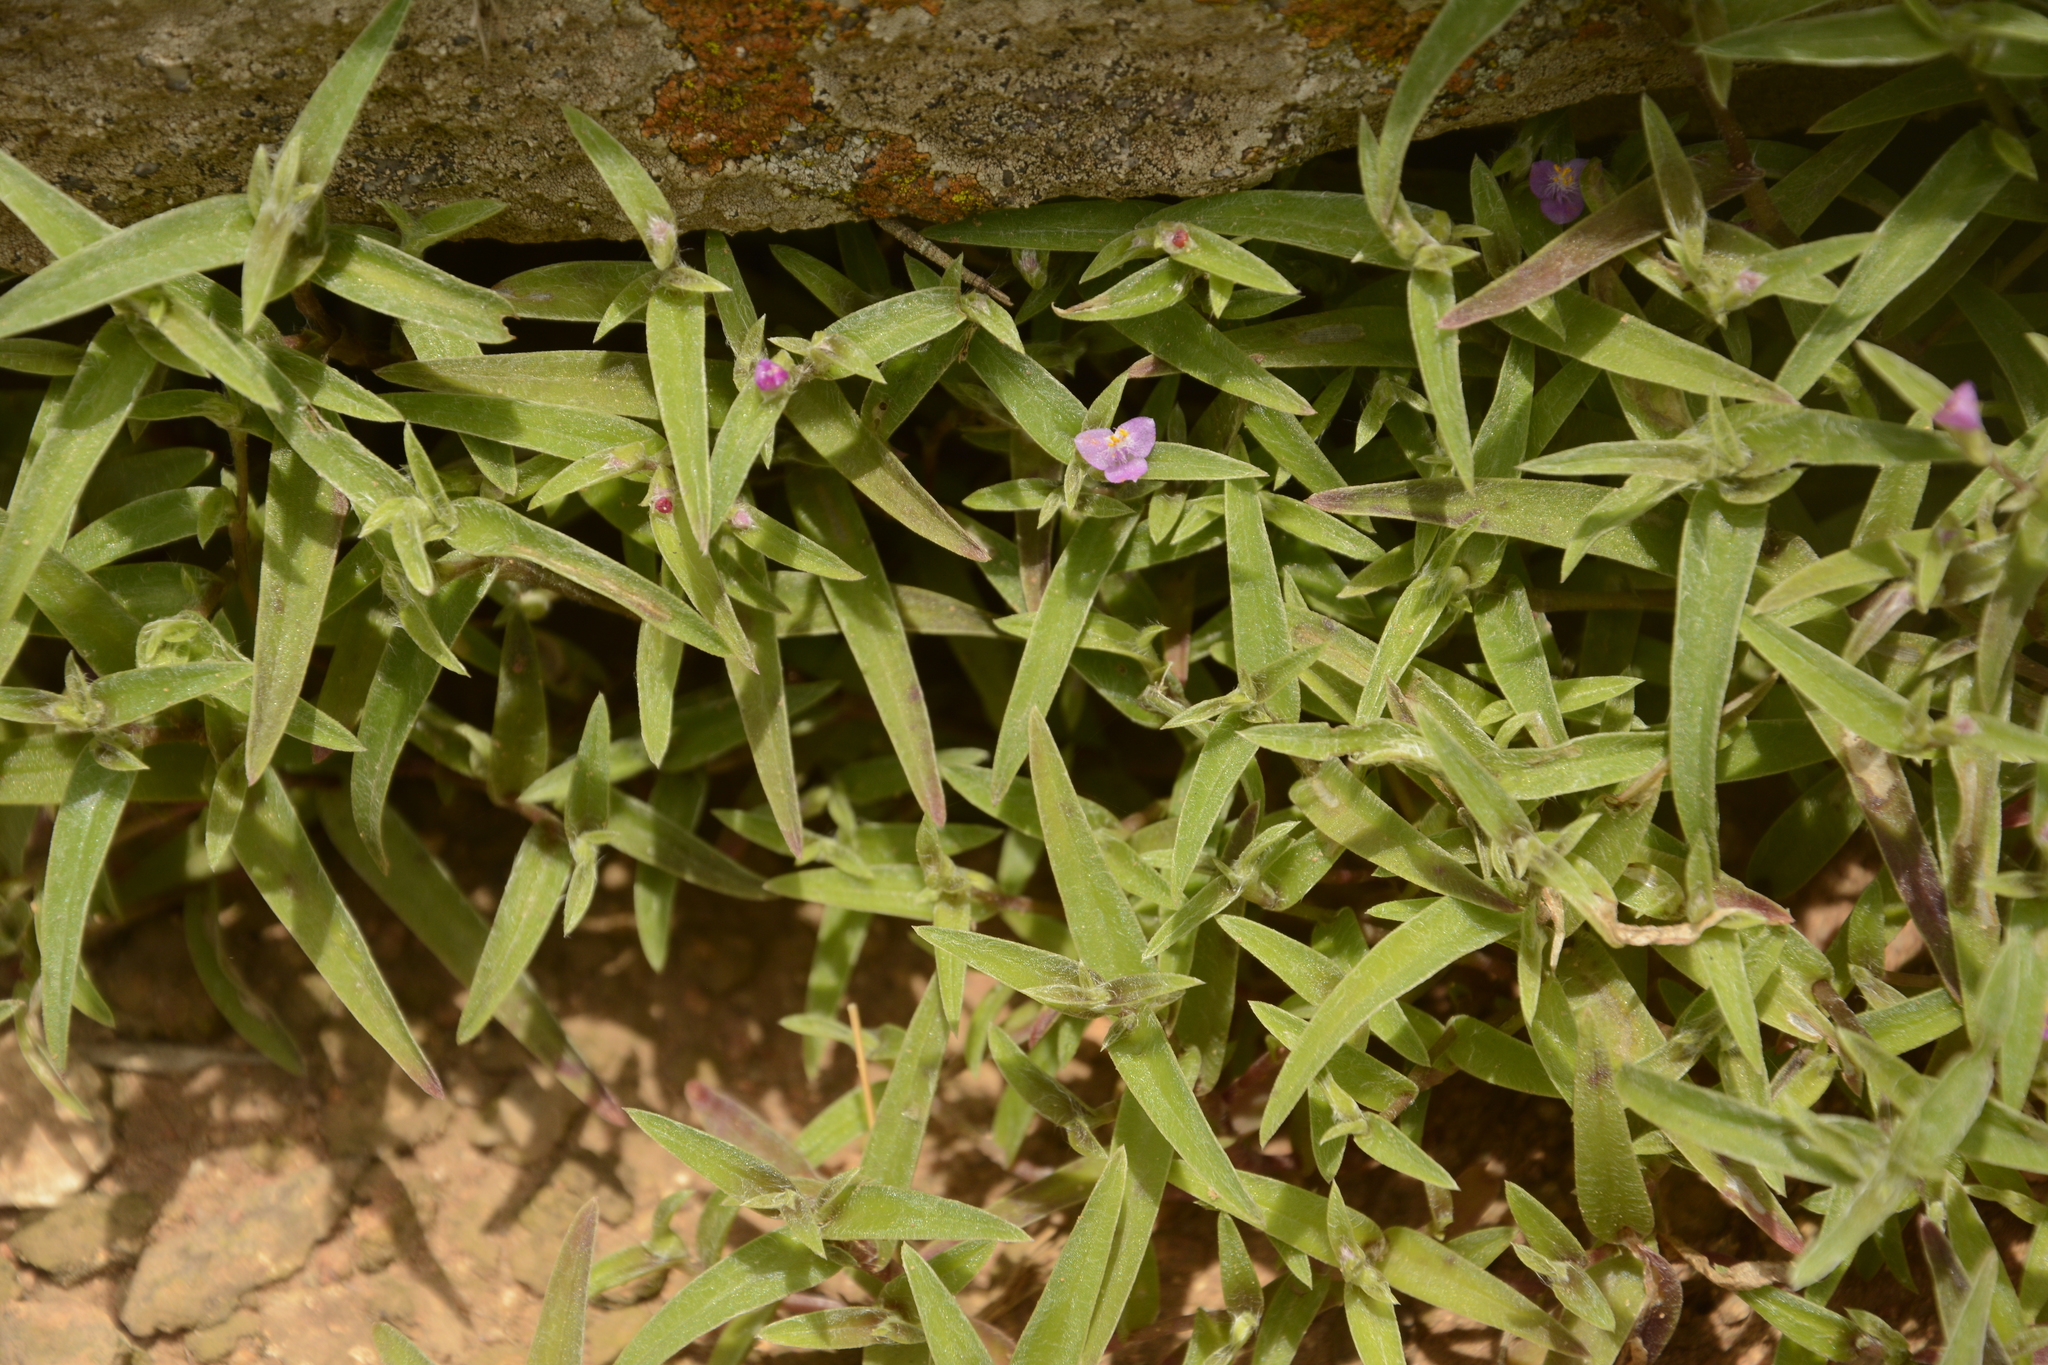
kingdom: Plantae
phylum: Tracheophyta
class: Liliopsida
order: Commelinales
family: Commelinaceae
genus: Cyanotis
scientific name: Cyanotis fasciculata
